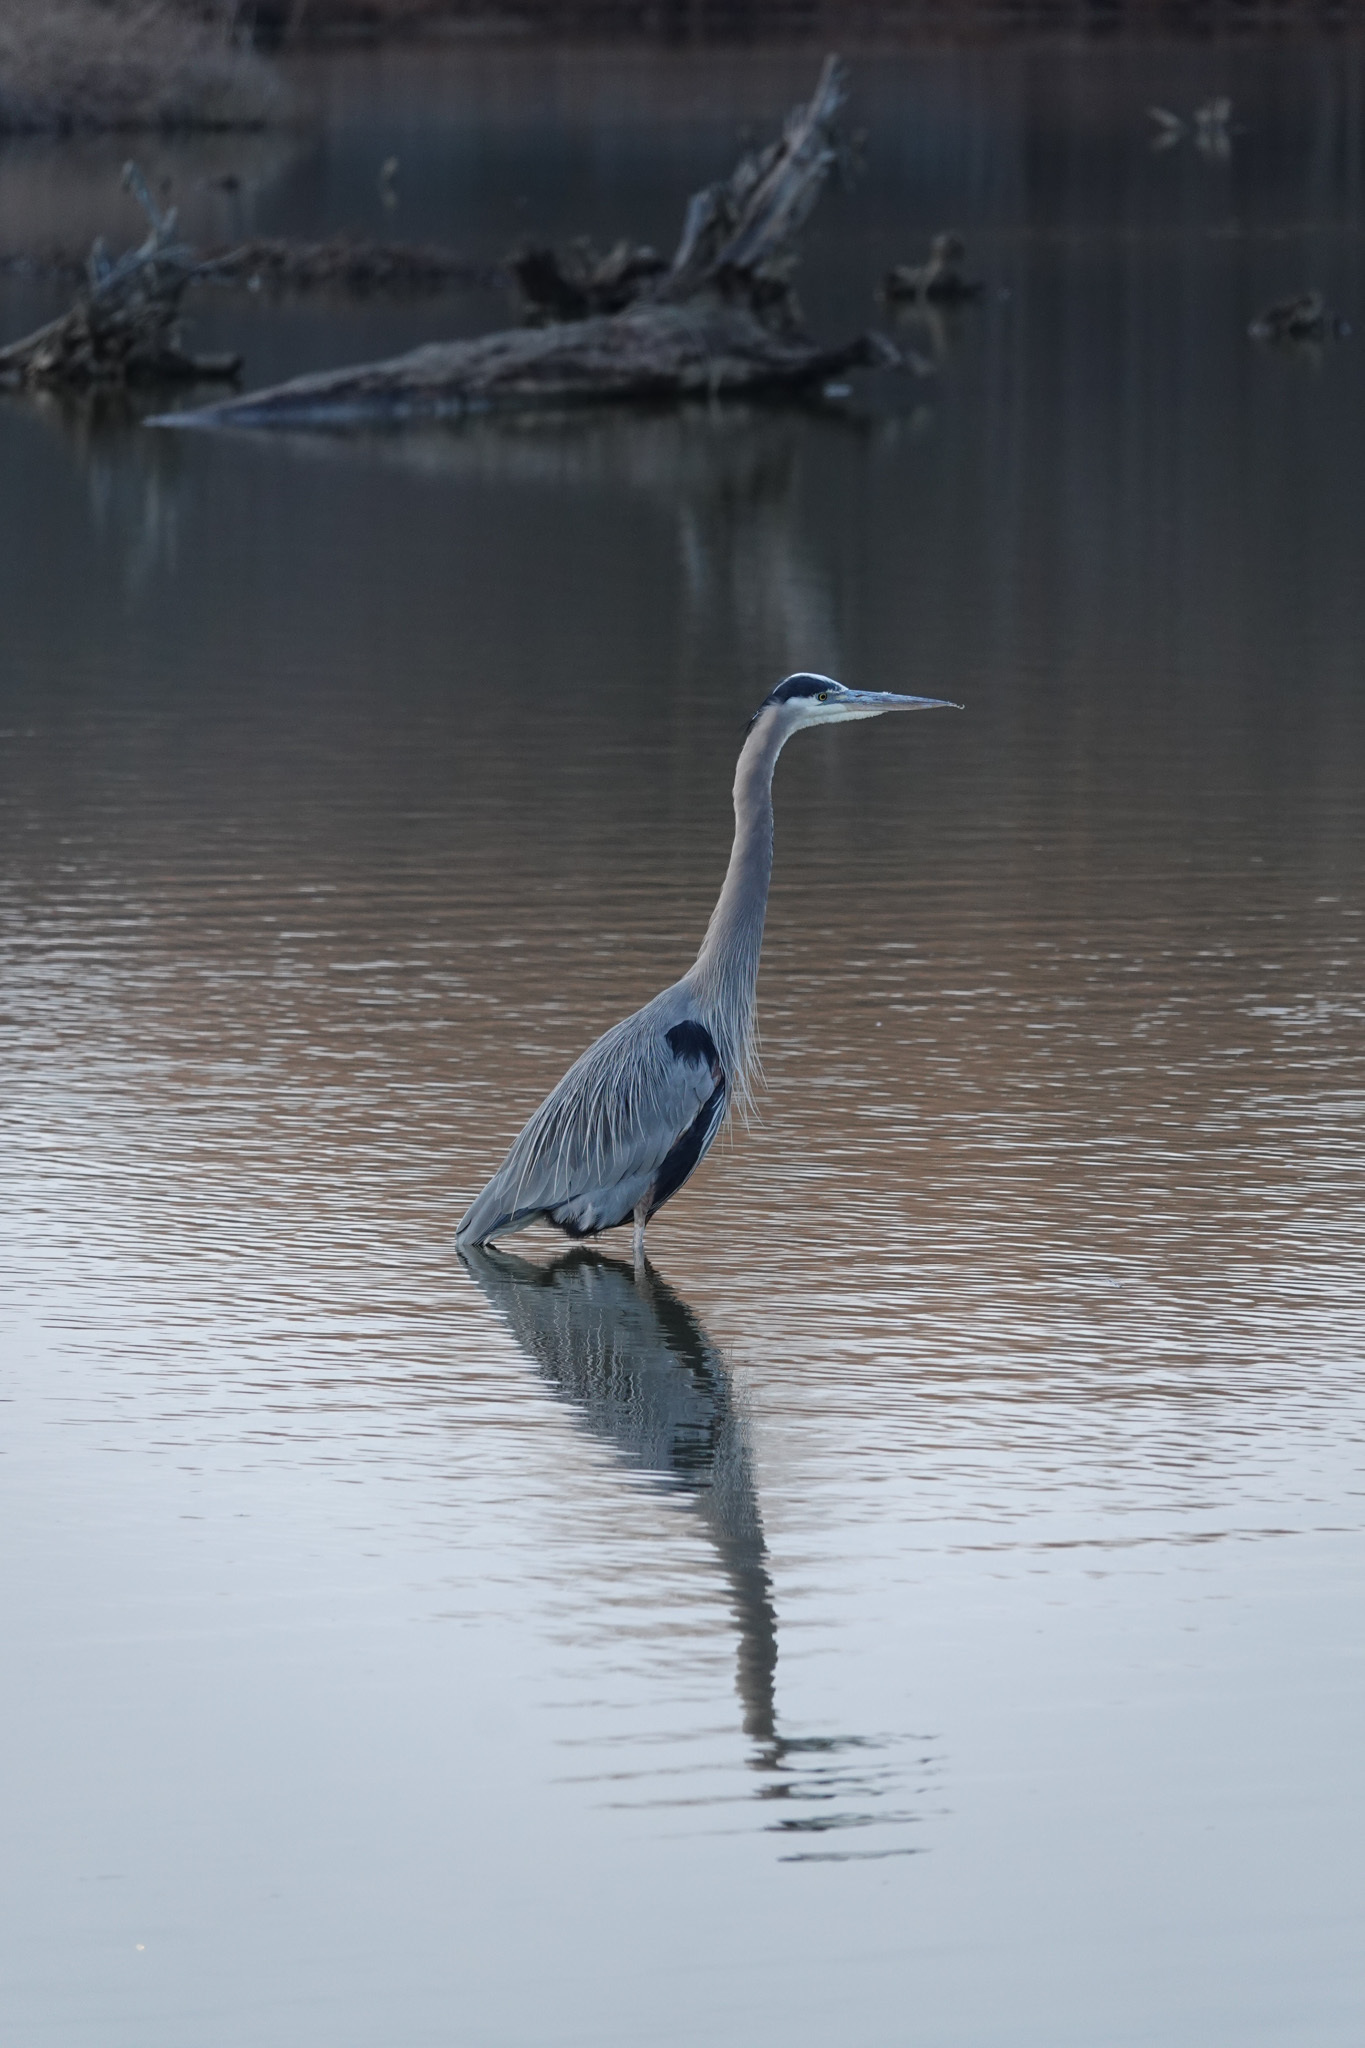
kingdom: Animalia
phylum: Chordata
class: Aves
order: Pelecaniformes
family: Ardeidae
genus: Ardea
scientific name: Ardea herodias
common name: Great blue heron
